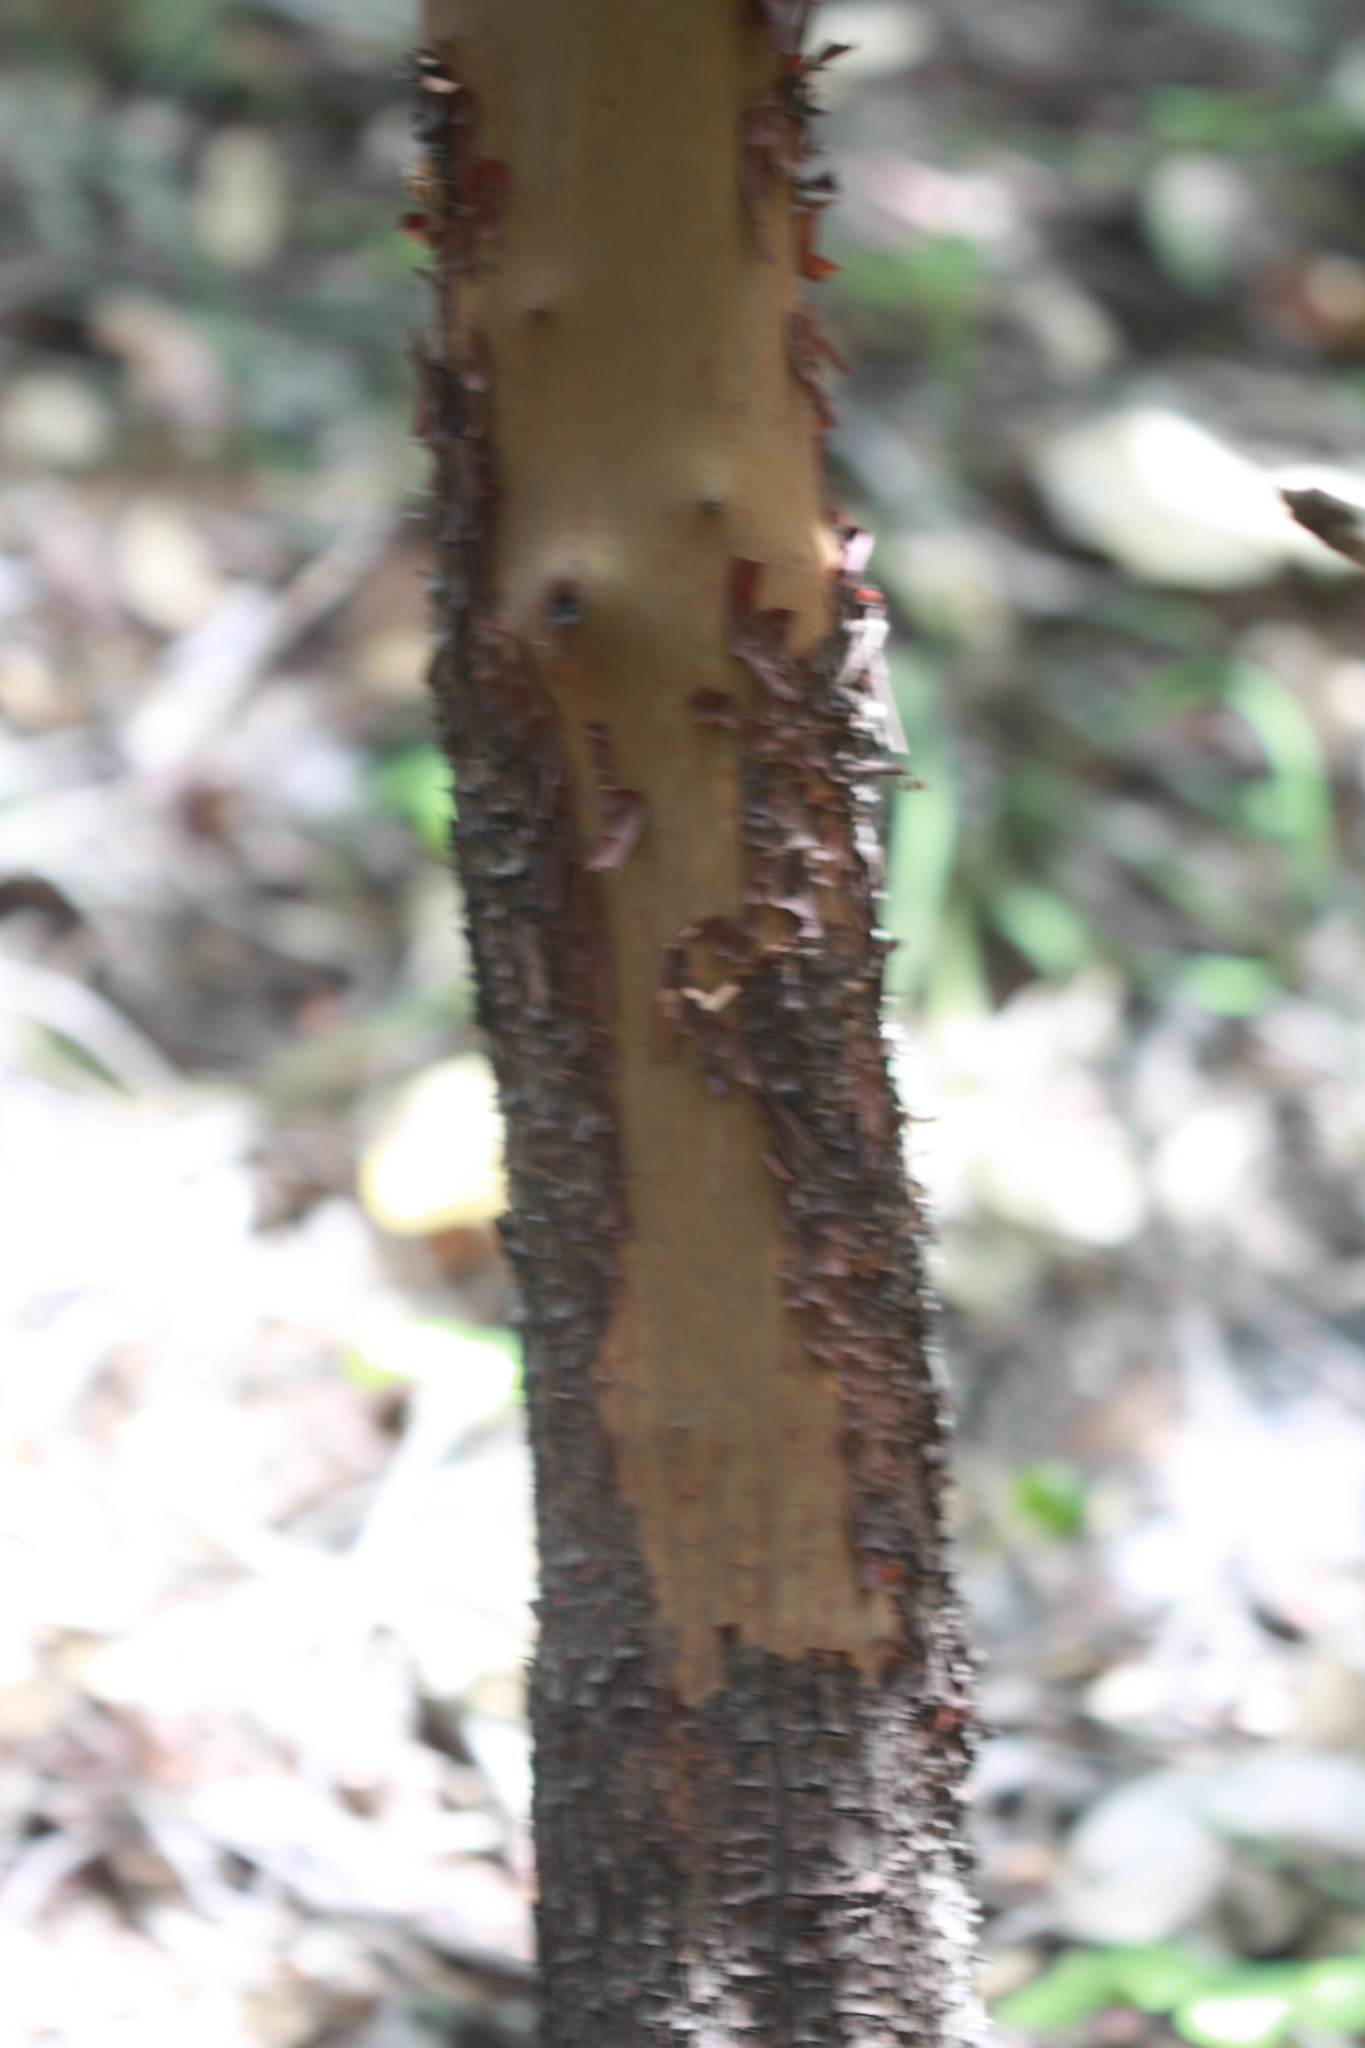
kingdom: Plantae
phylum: Tracheophyta
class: Magnoliopsida
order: Ericales
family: Ericaceae
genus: Arbutus
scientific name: Arbutus menziesii
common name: Pacific madrone
